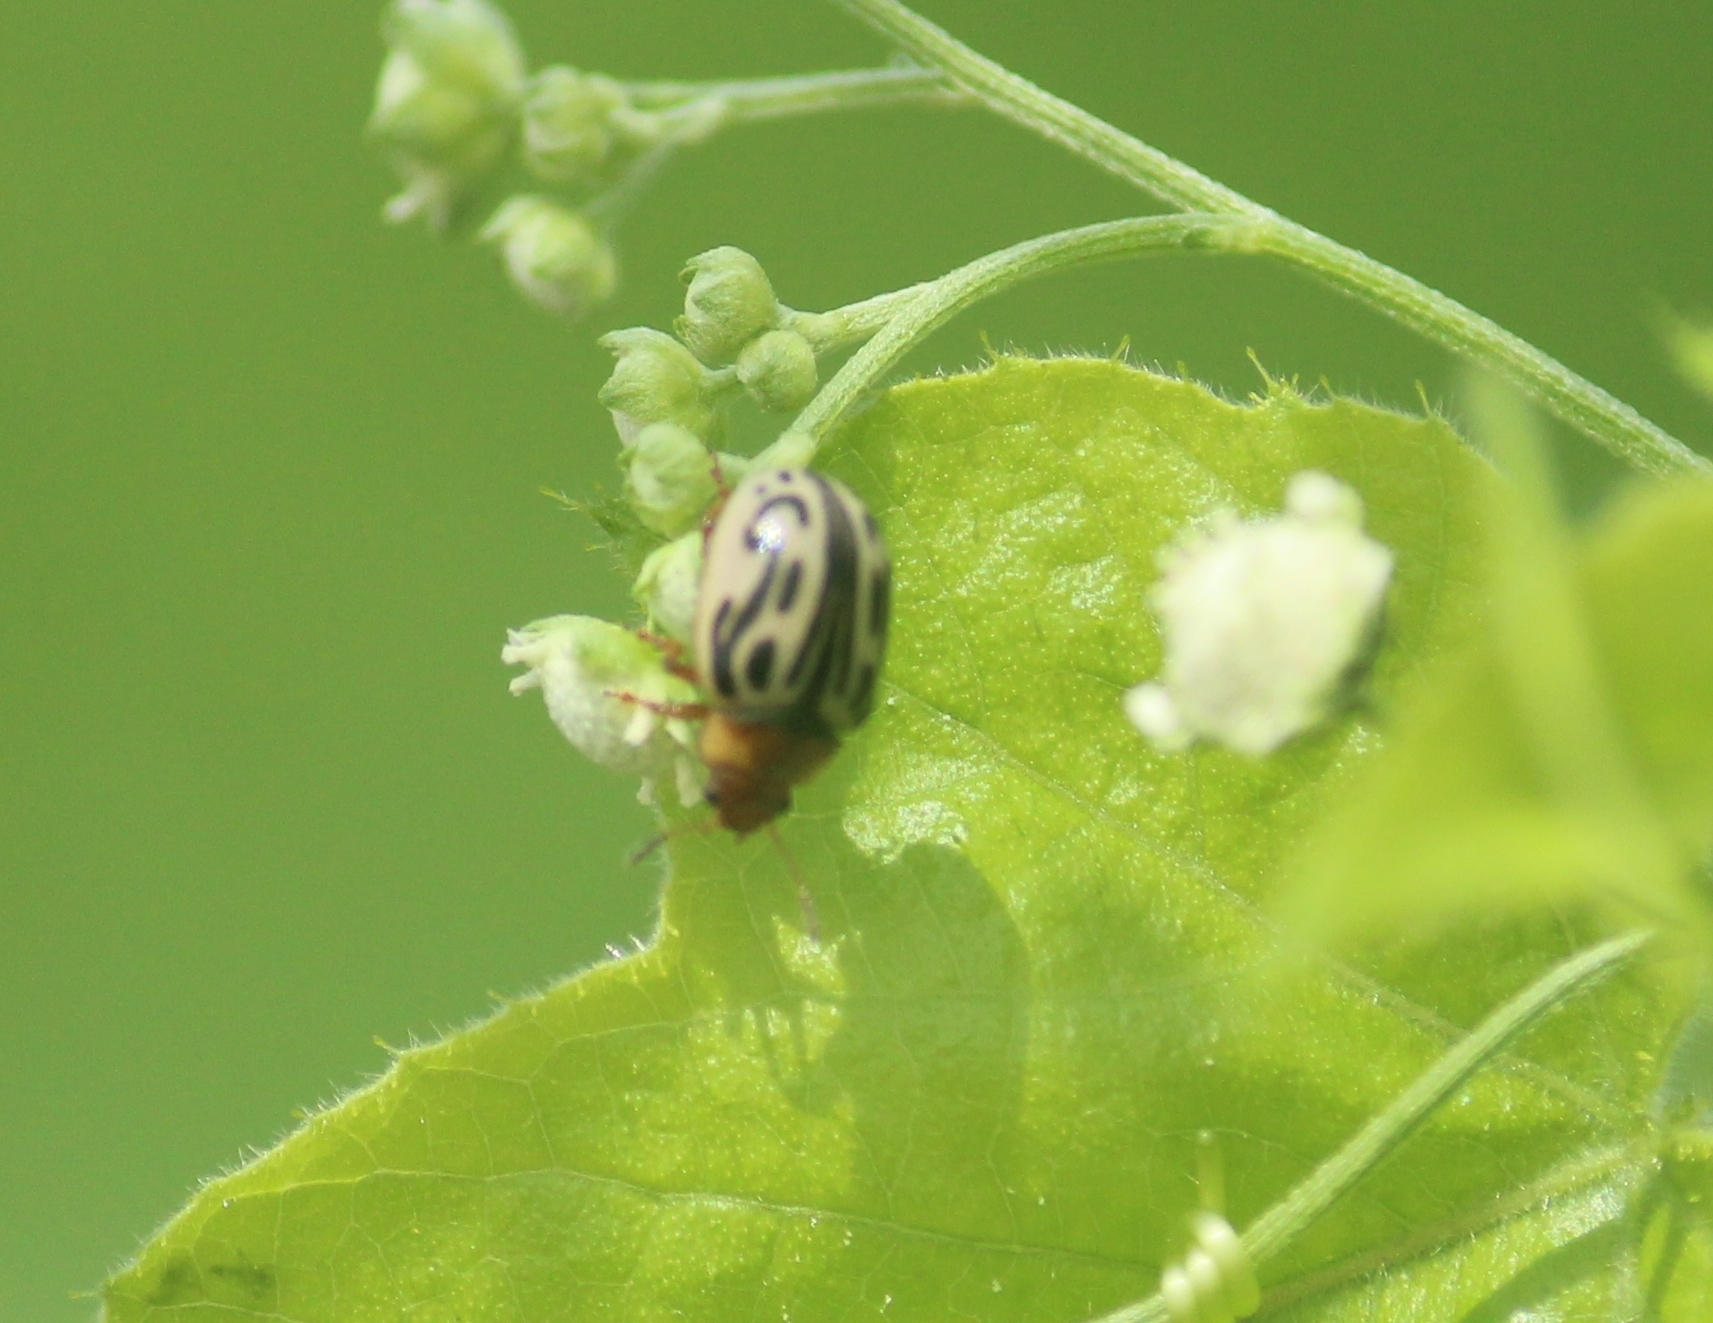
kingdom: Animalia
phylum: Arthropoda
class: Insecta
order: Coleoptera
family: Chrysomelidae
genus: Calligrapha
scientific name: Calligrapha
